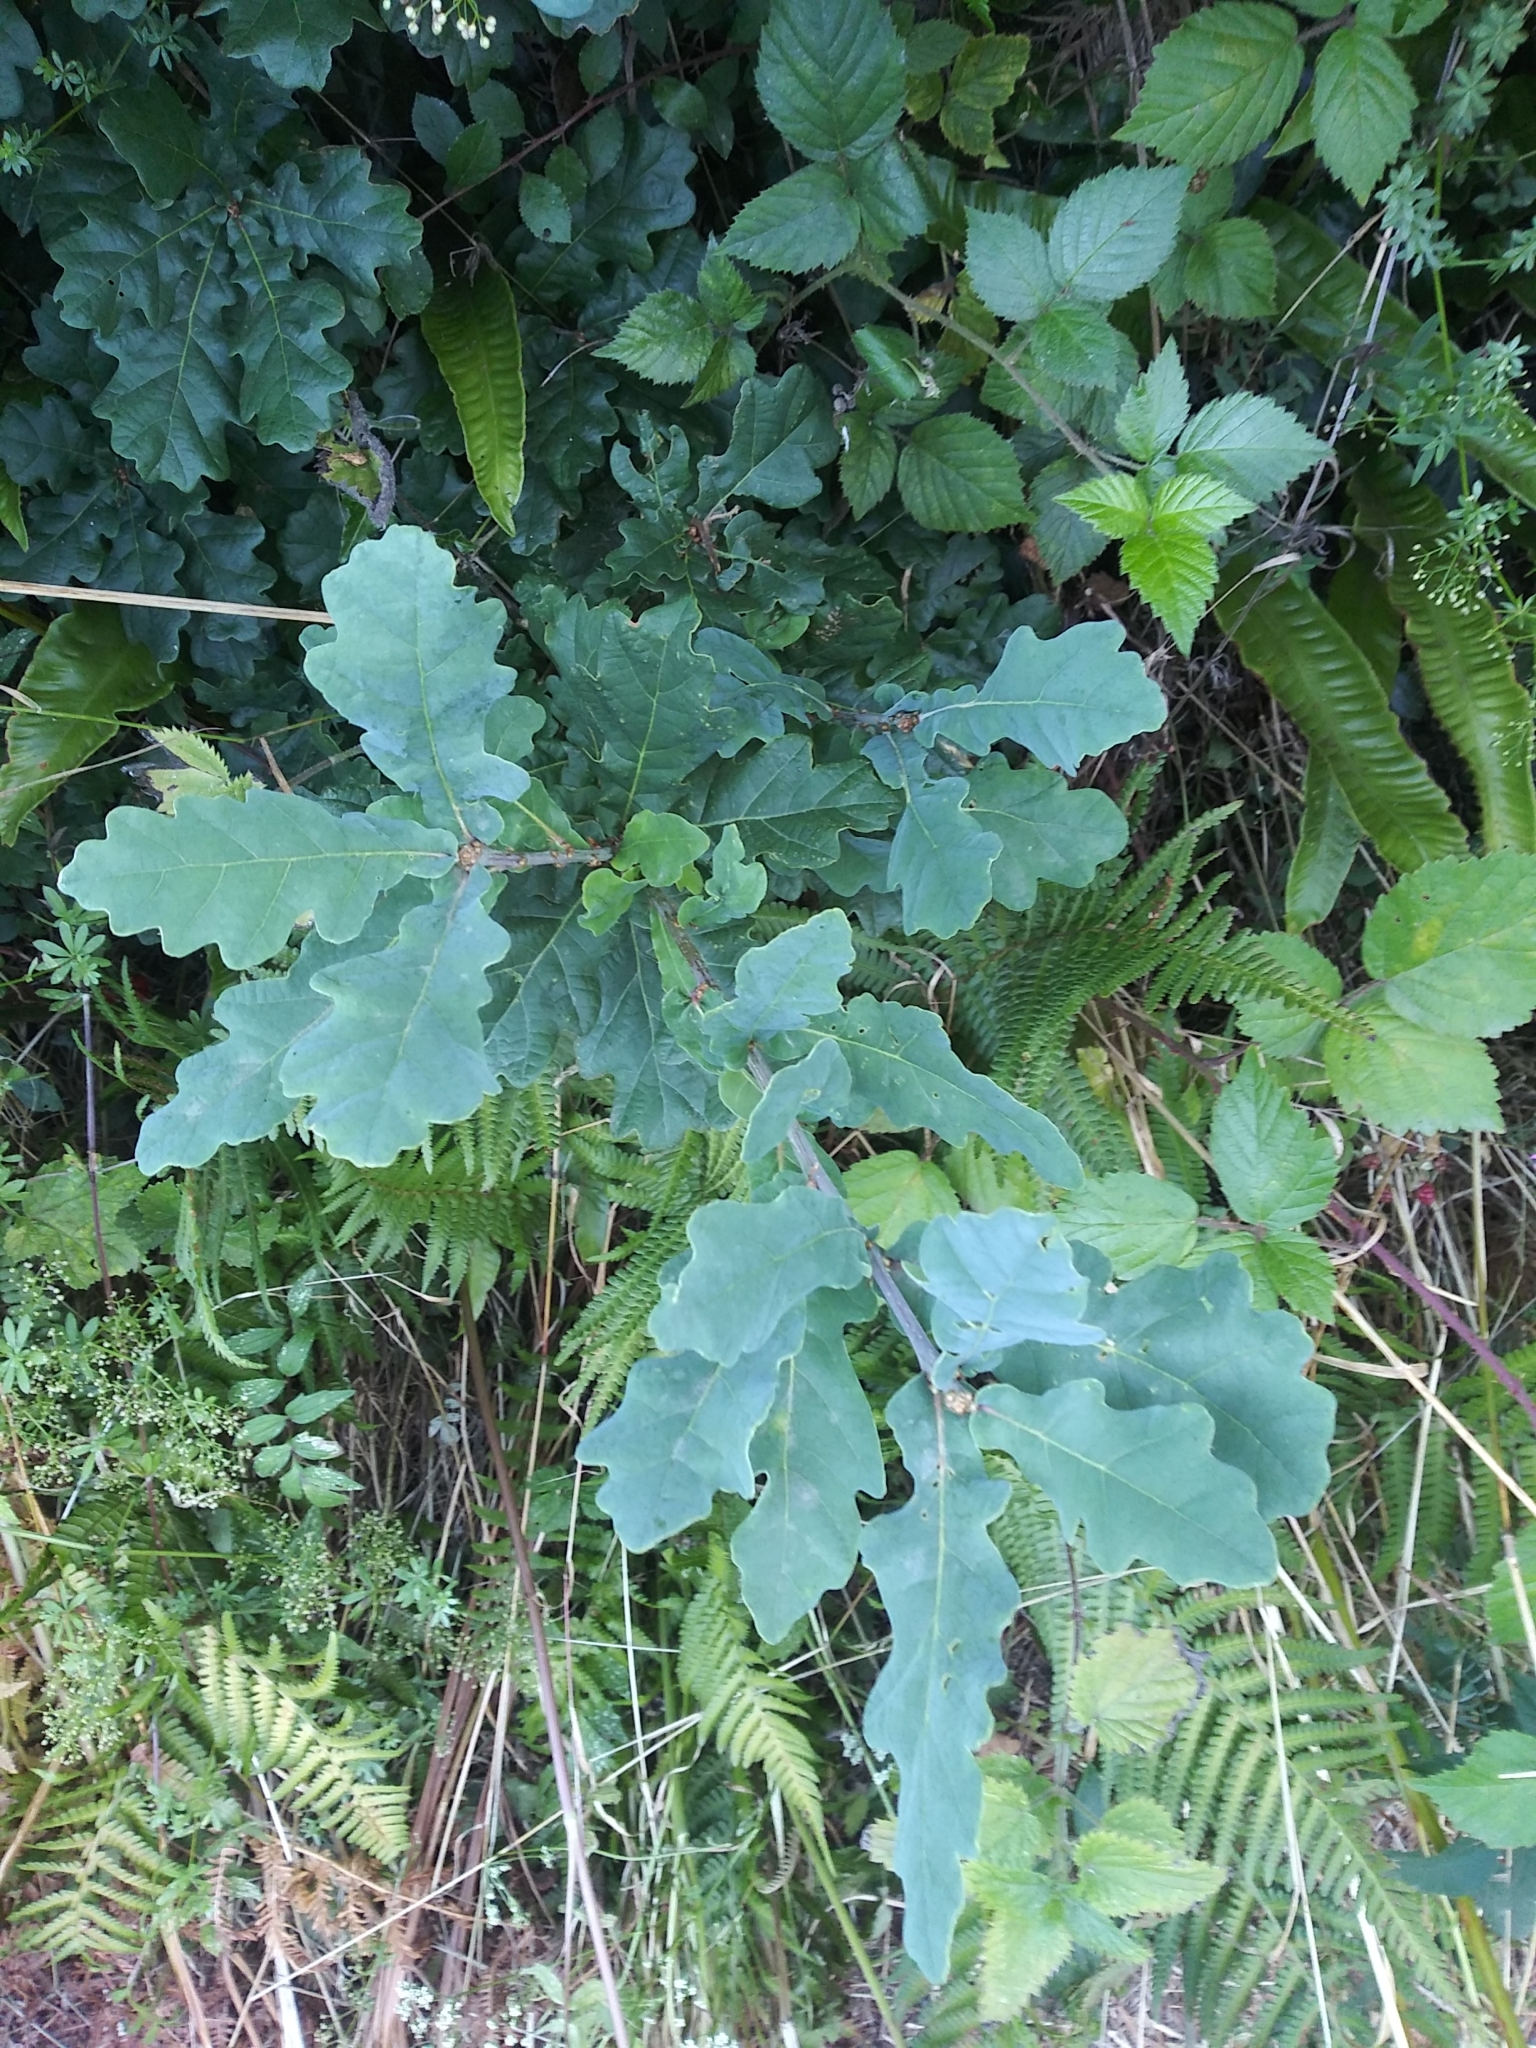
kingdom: Plantae
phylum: Tracheophyta
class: Magnoliopsida
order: Fagales
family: Fagaceae
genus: Quercus
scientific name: Quercus robur
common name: Pedunculate oak
